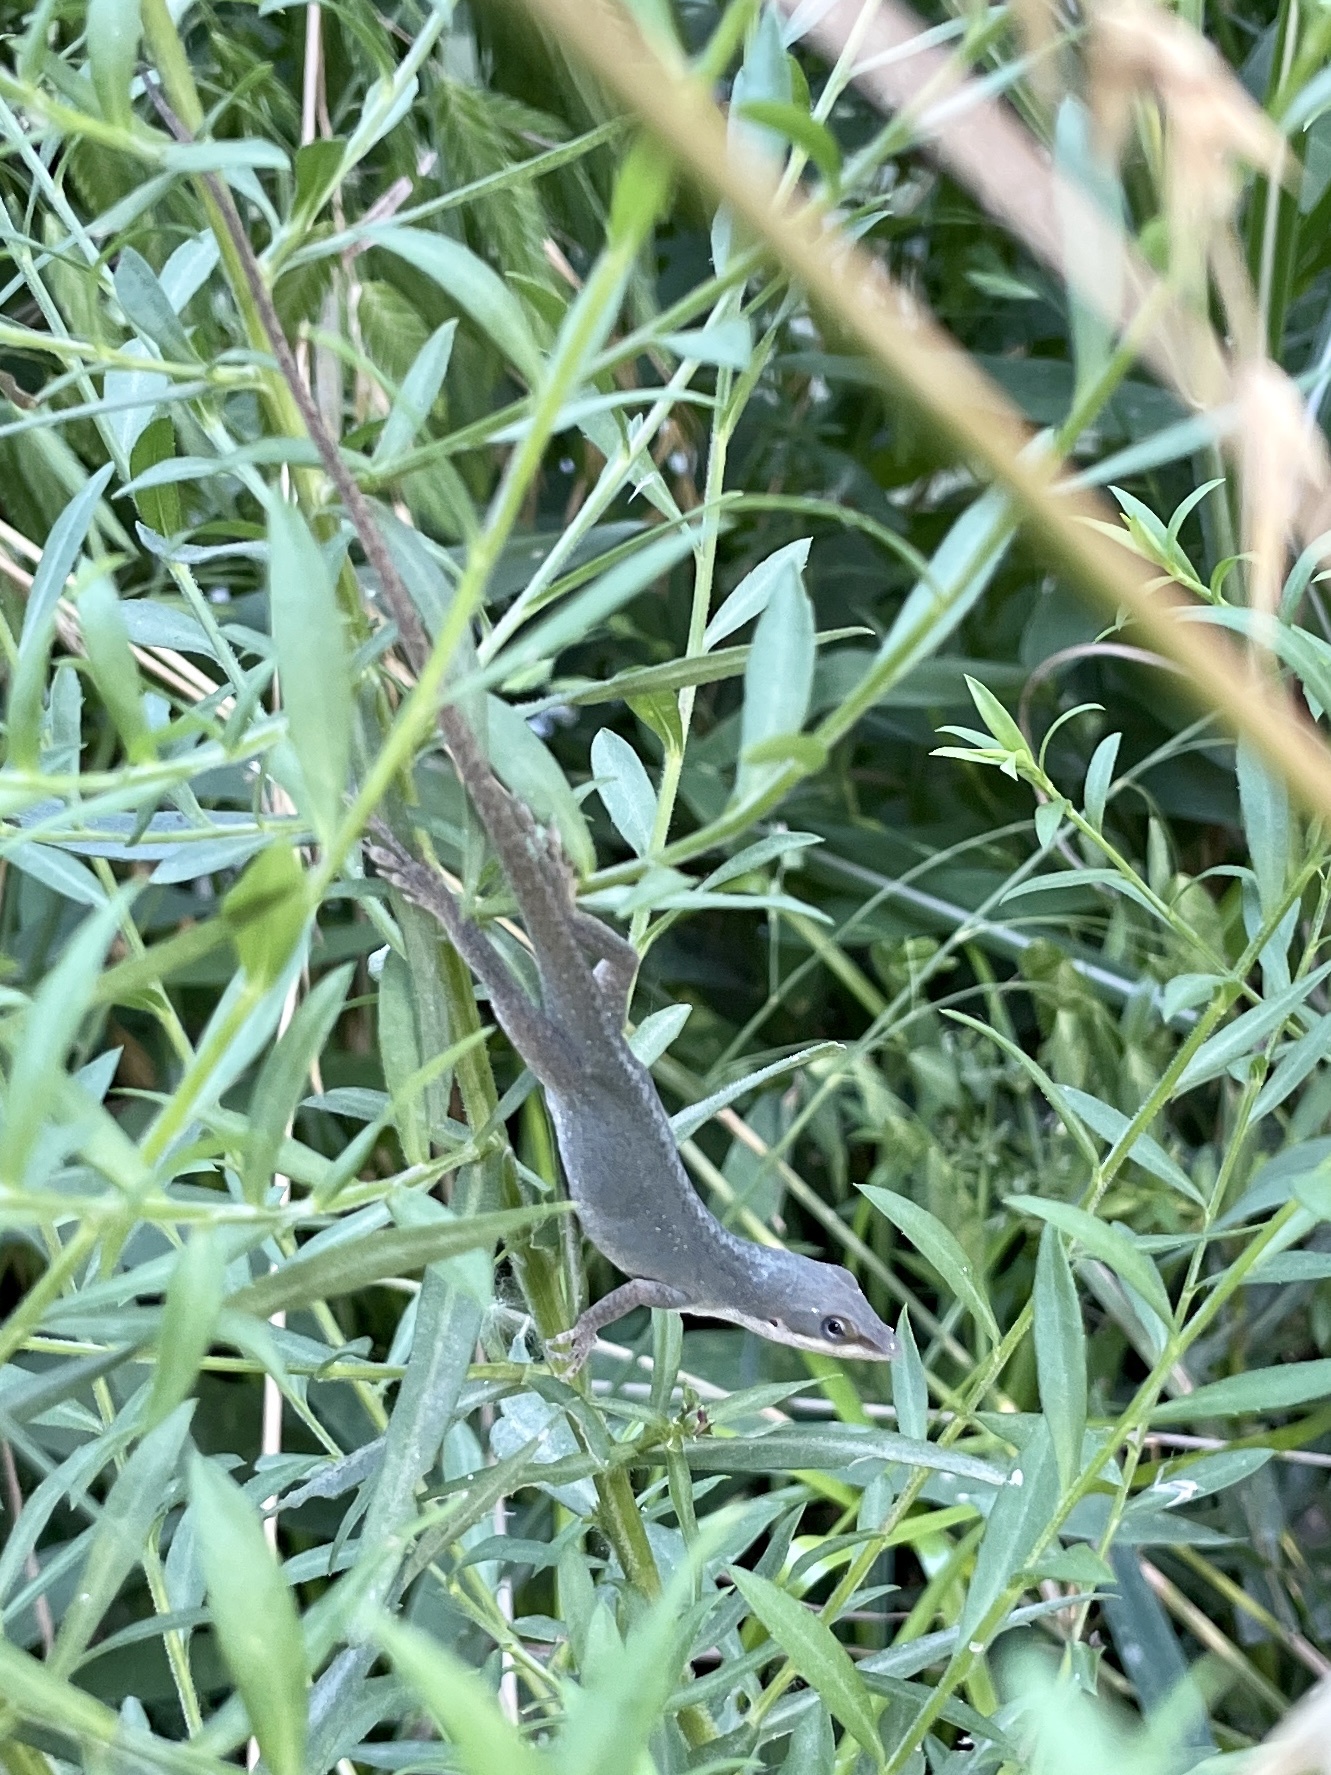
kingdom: Animalia
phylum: Chordata
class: Squamata
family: Dactyloidae
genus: Anolis
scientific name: Anolis carolinensis
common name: Green anole
